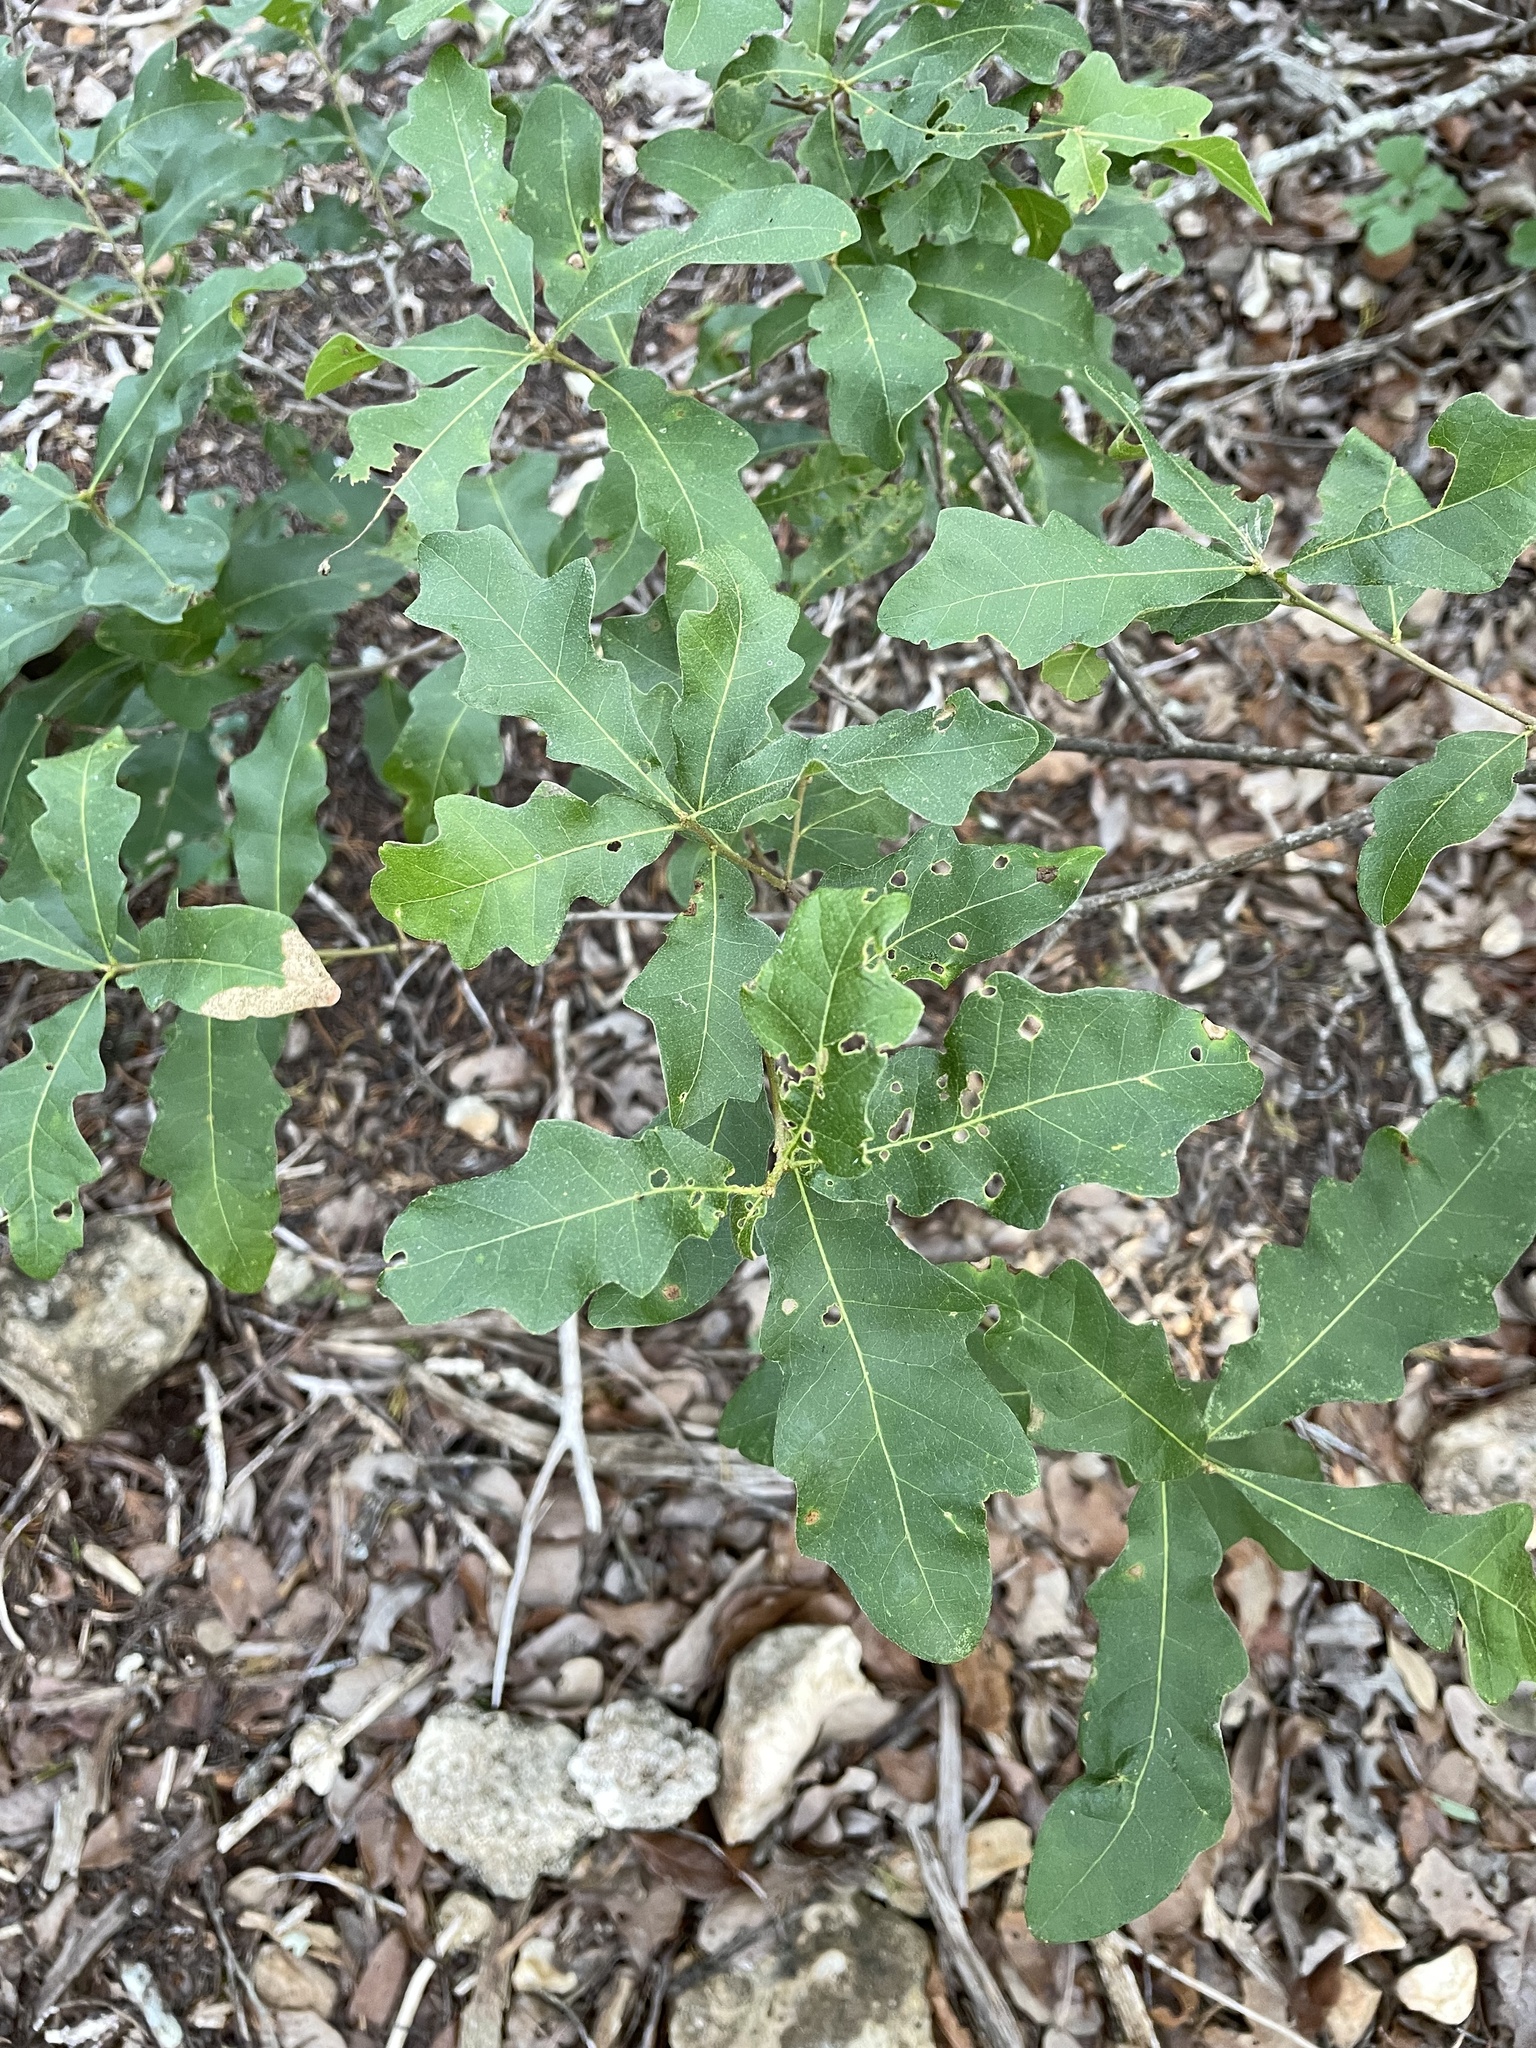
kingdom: Plantae
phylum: Tracheophyta
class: Magnoliopsida
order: Fagales
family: Fagaceae
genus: Quercus
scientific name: Quercus sinuata
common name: Durand oak
